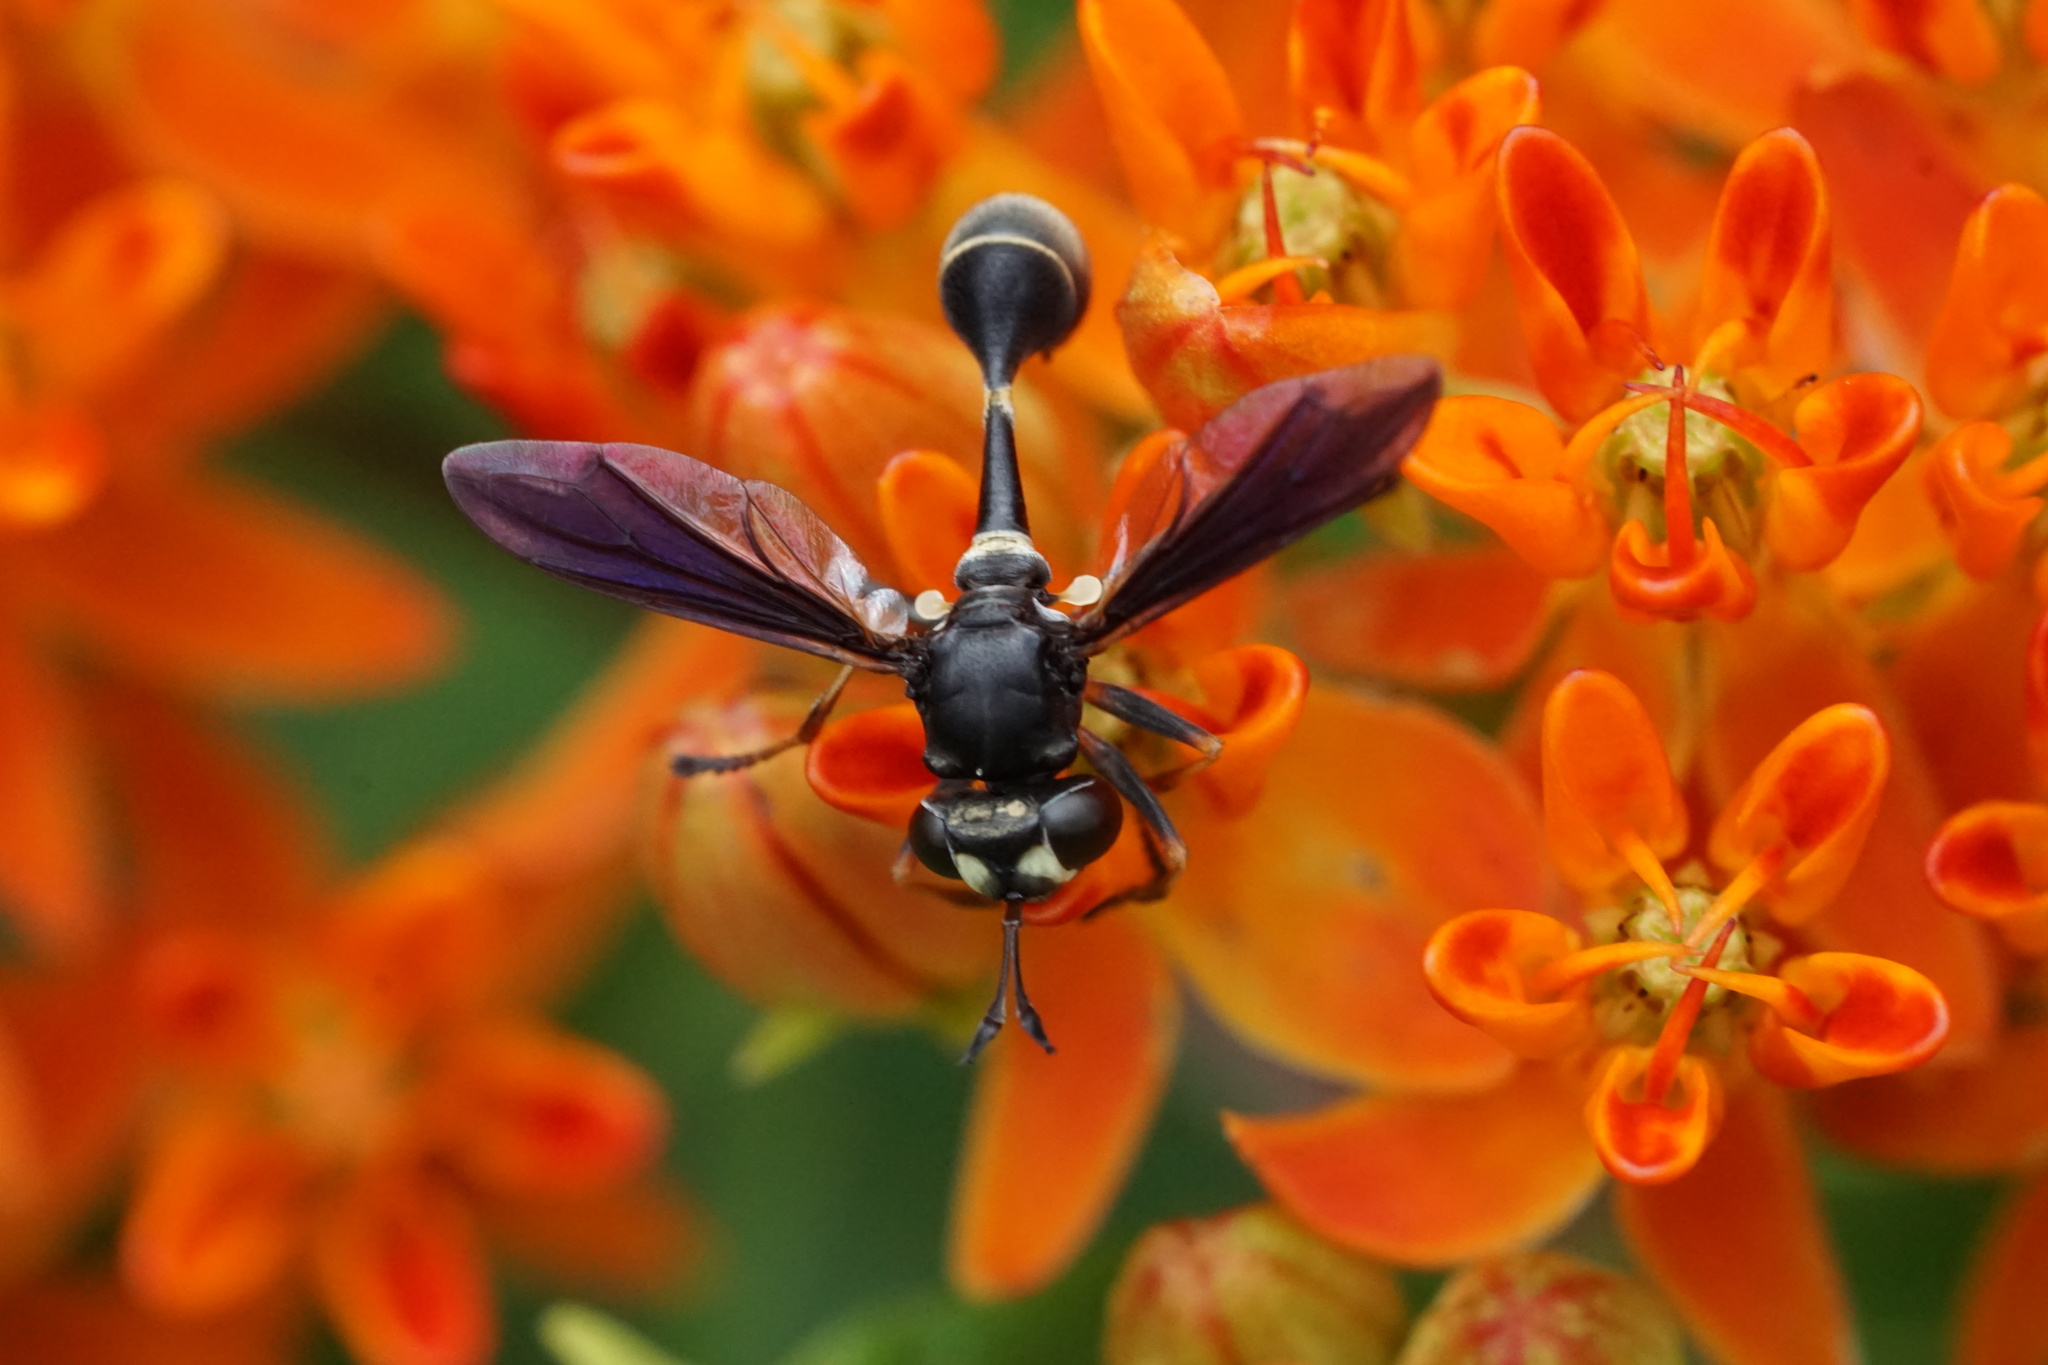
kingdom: Animalia
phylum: Arthropoda
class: Insecta
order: Diptera
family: Conopidae
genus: Physocephala
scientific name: Physocephala tibialis
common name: Common eastern physocephala
